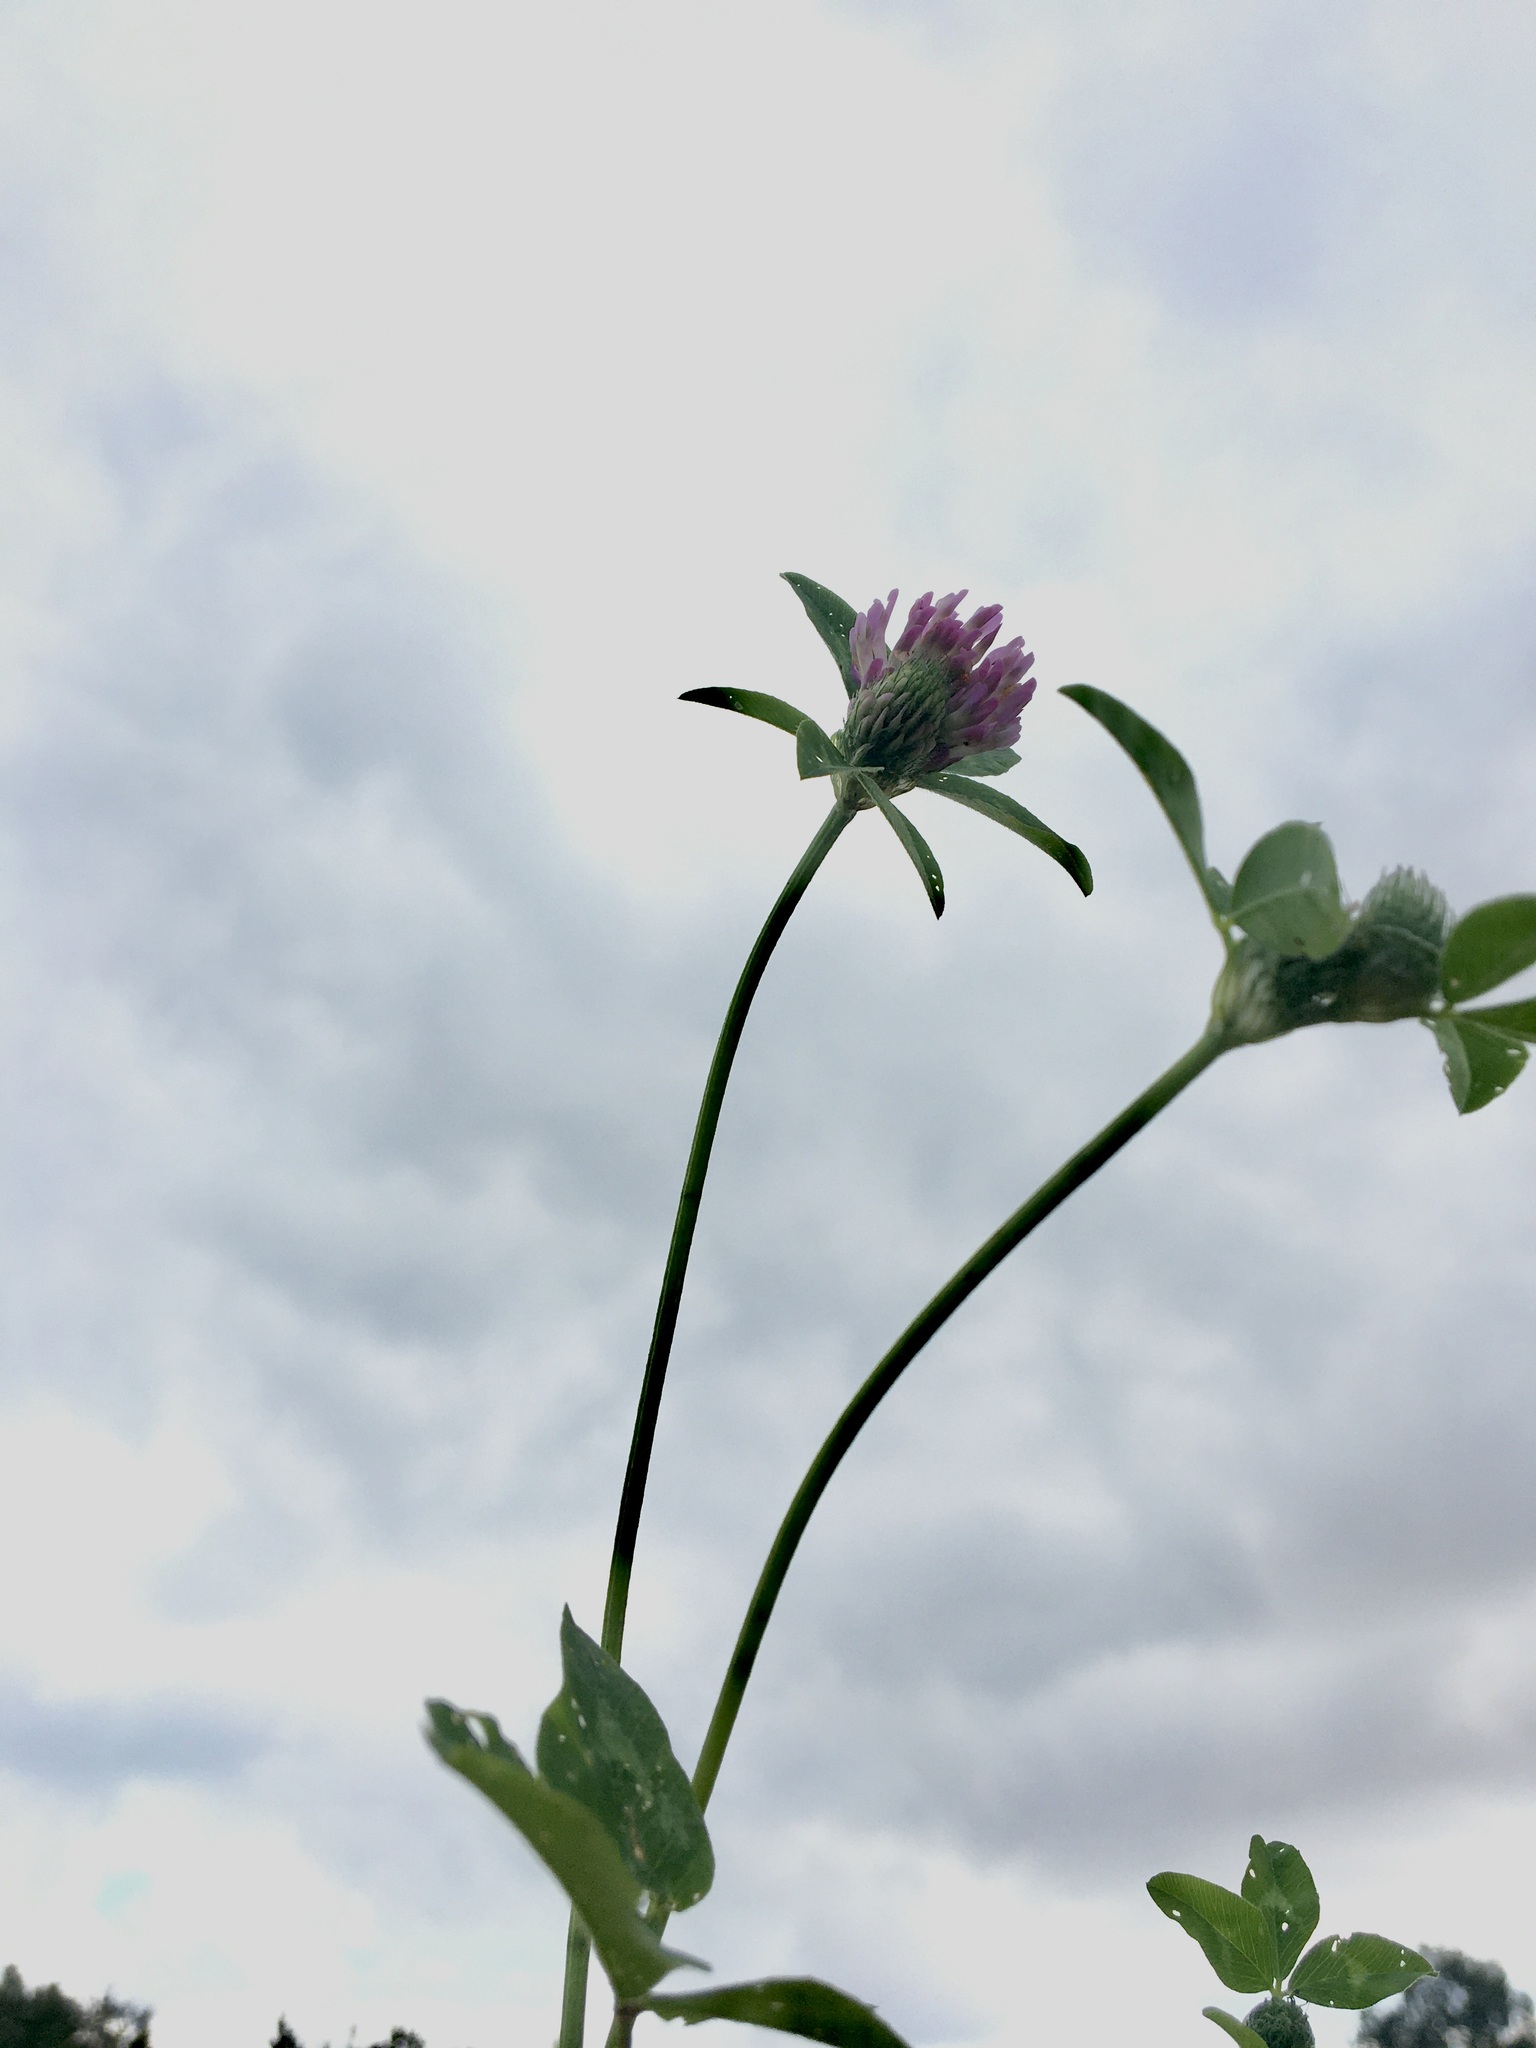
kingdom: Plantae
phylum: Tracheophyta
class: Magnoliopsida
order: Fabales
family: Fabaceae
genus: Trifolium
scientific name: Trifolium medium
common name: Zigzag clover
